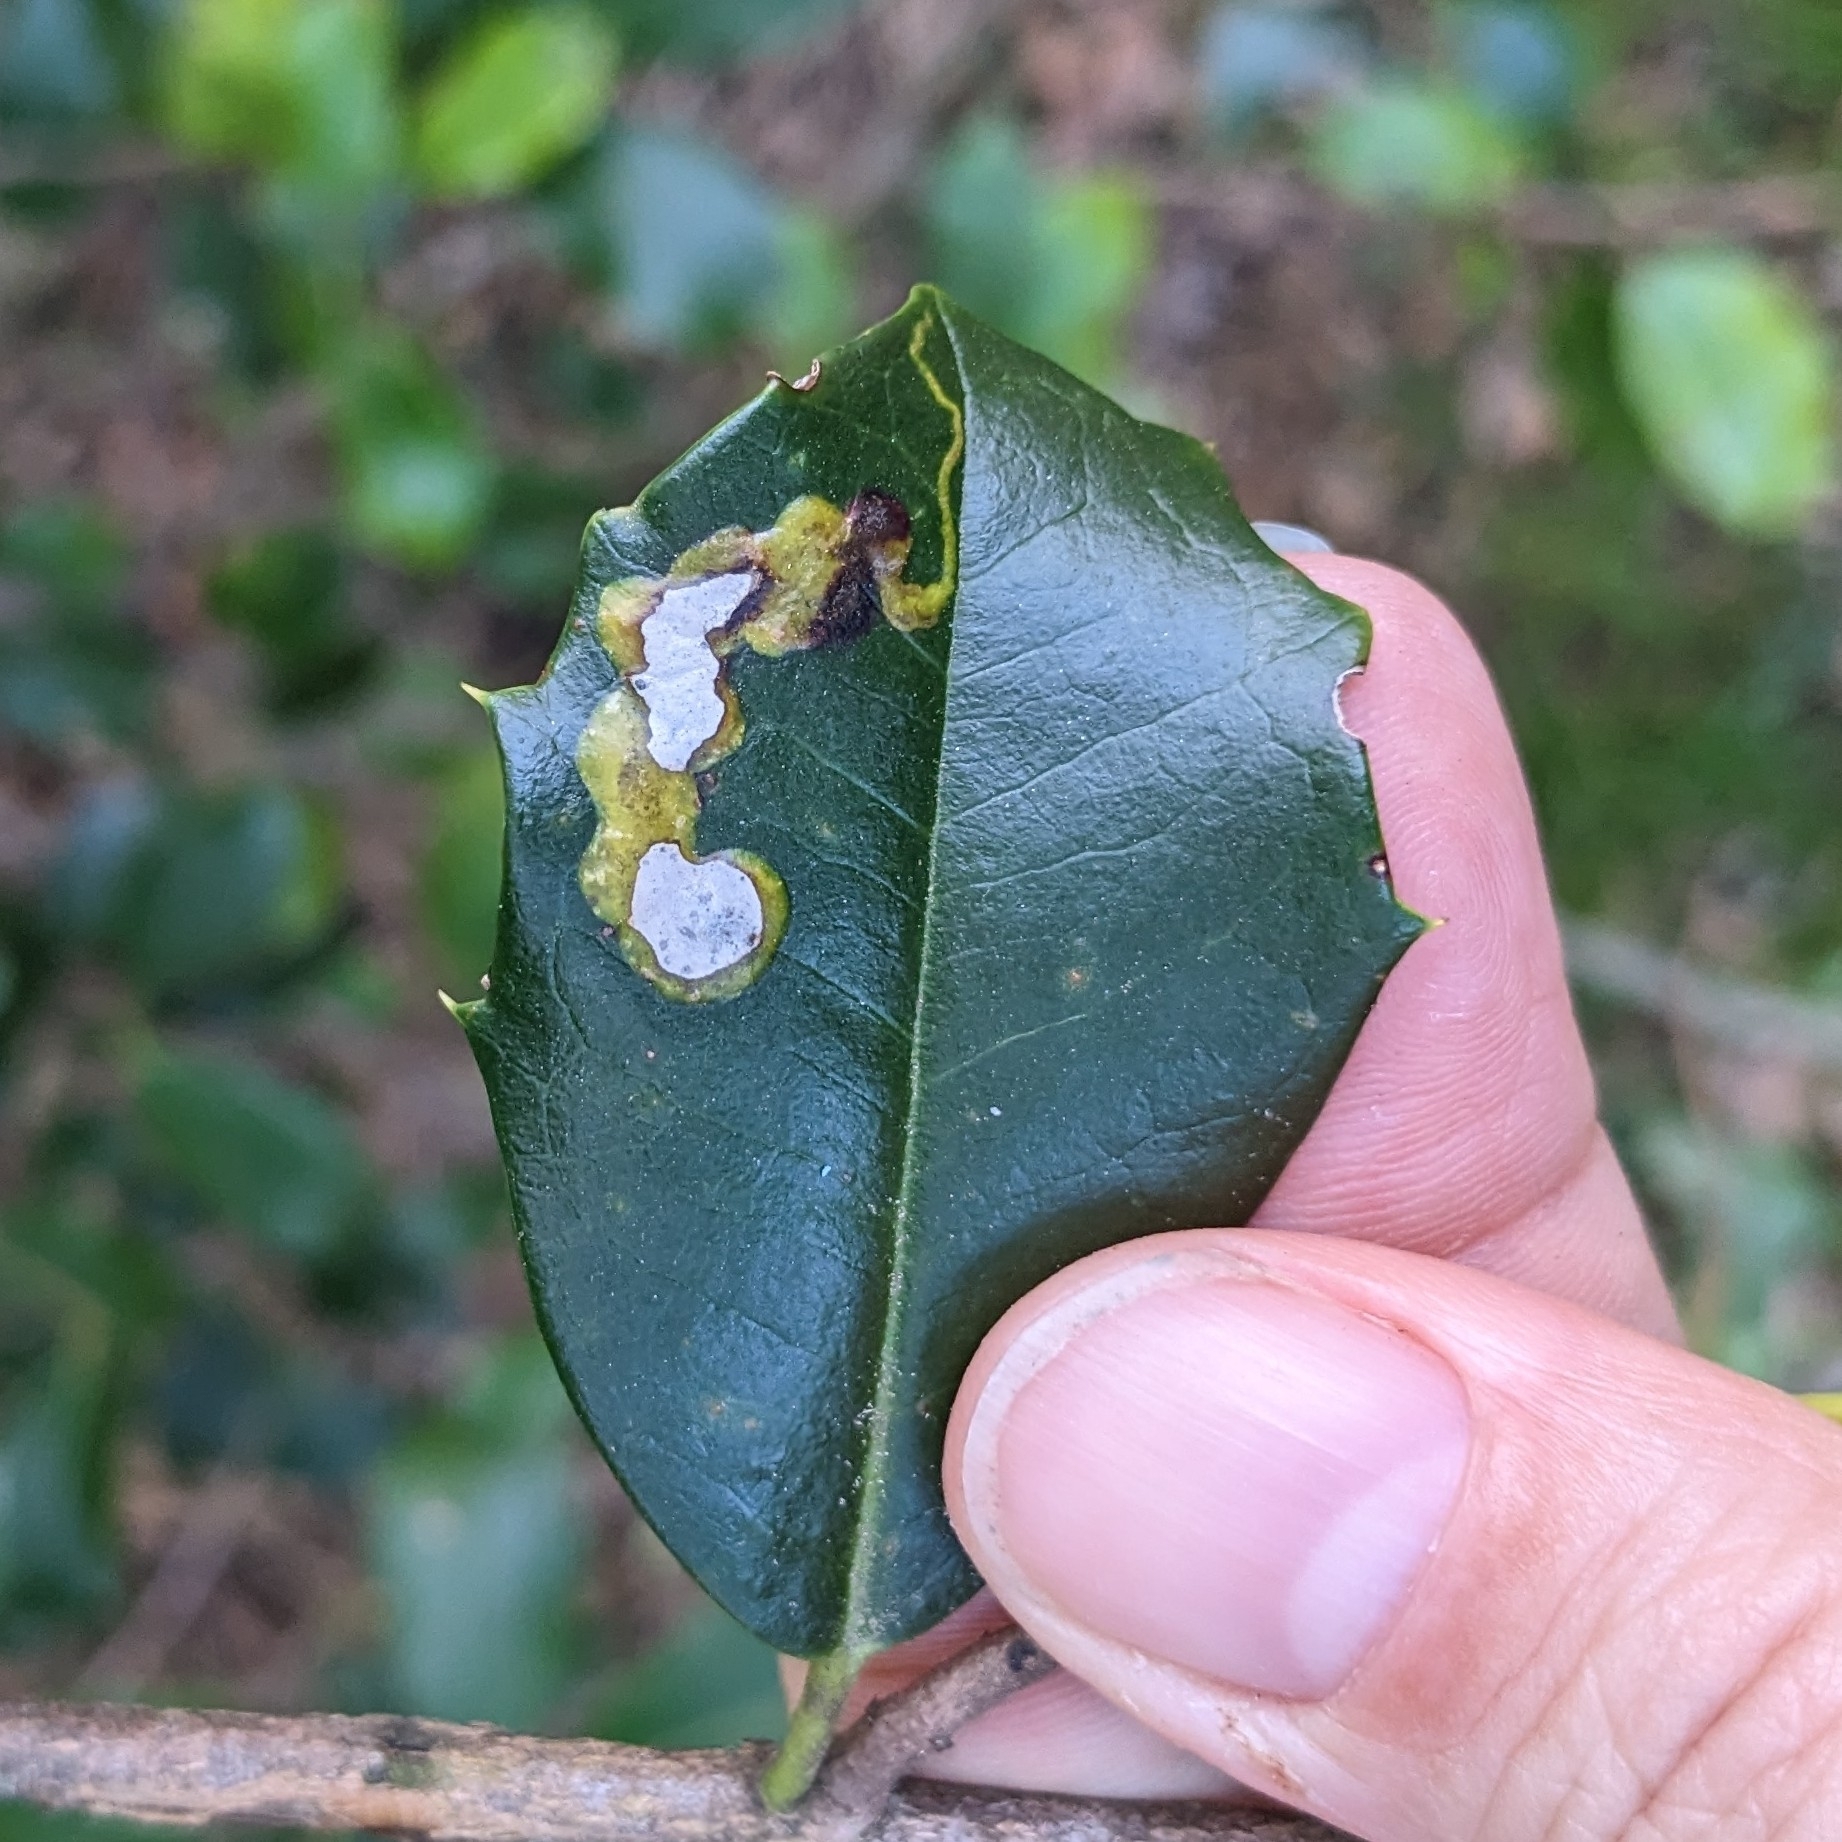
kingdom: Animalia
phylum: Arthropoda
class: Insecta
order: Diptera
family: Agromyzidae
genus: Phytomyza
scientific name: Phytomyza ilicicola
